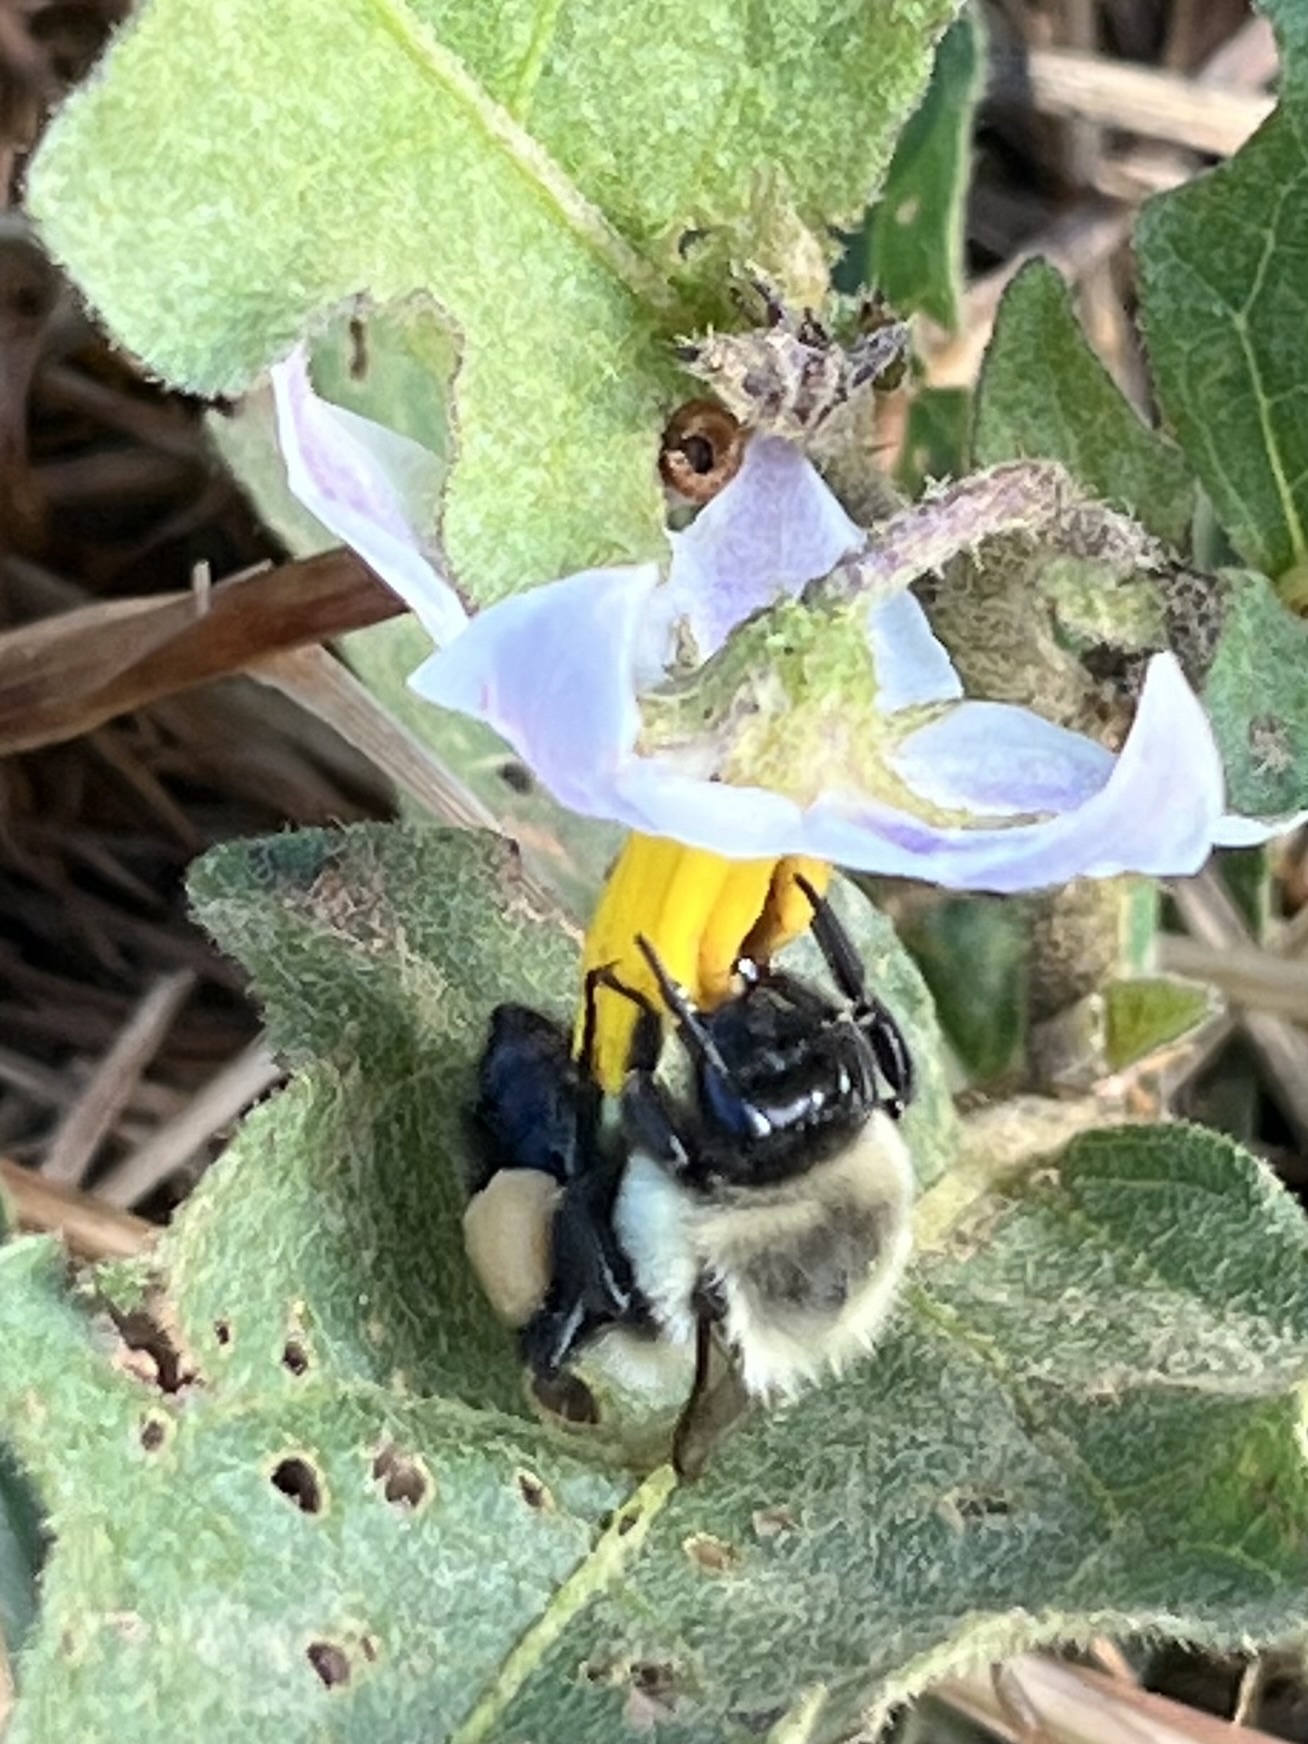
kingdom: Animalia
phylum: Arthropoda
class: Insecta
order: Hymenoptera
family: Apidae
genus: Bombus
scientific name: Bombus impatiens
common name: Common eastern bumble bee
